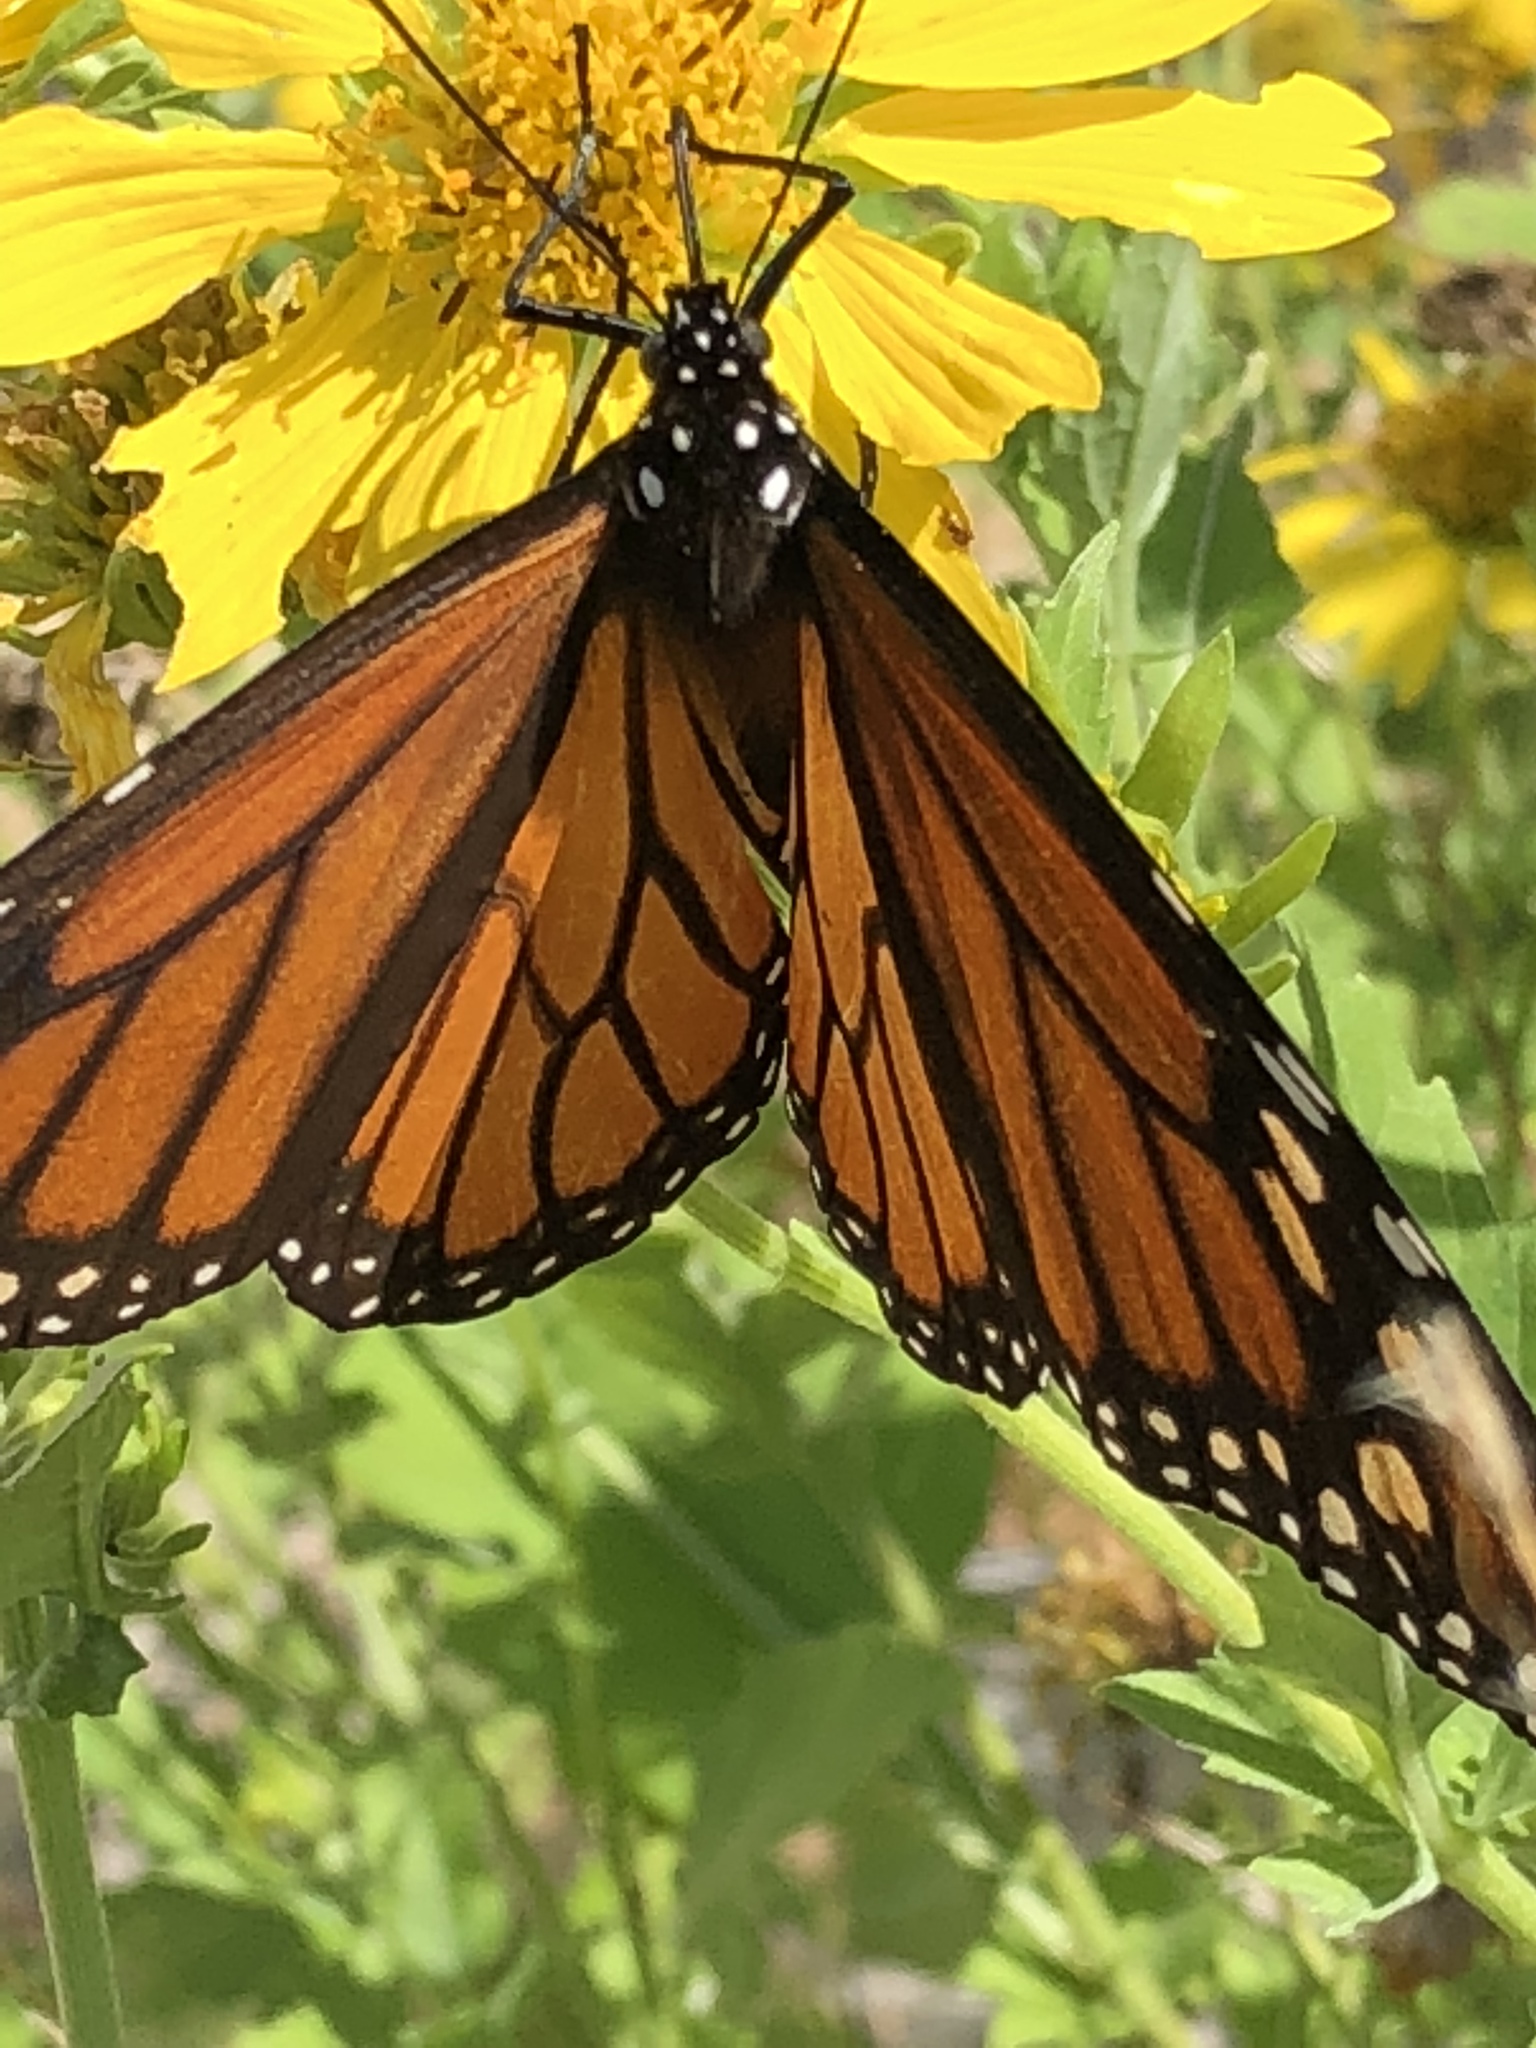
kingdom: Animalia
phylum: Arthropoda
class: Insecta
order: Lepidoptera
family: Nymphalidae
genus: Danaus
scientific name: Danaus plexippus
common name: Monarch
